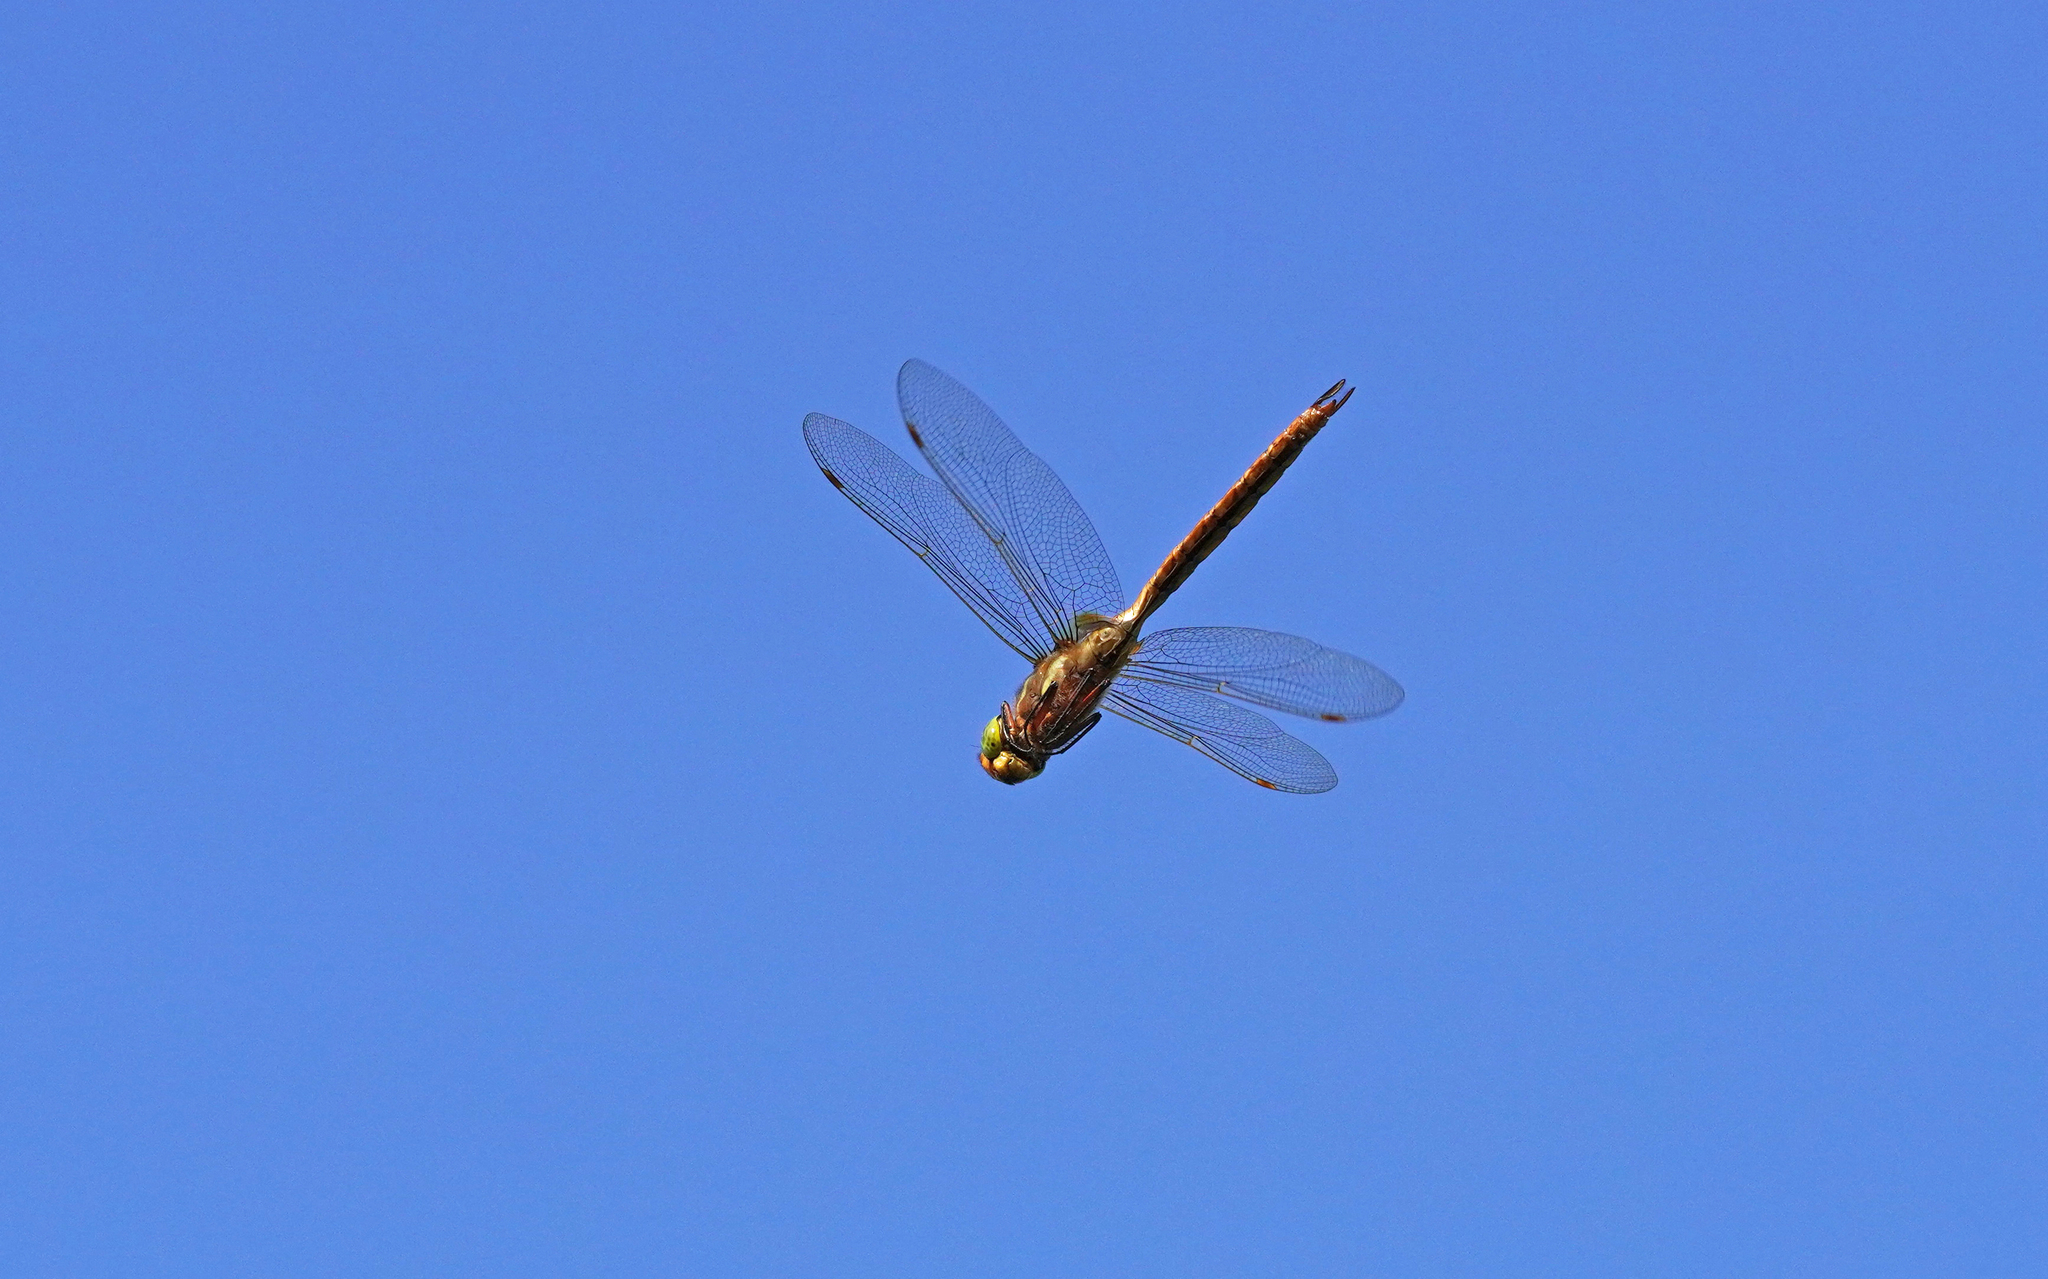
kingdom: Animalia
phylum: Arthropoda
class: Insecta
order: Odonata
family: Aeshnidae
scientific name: Aeshnidae
